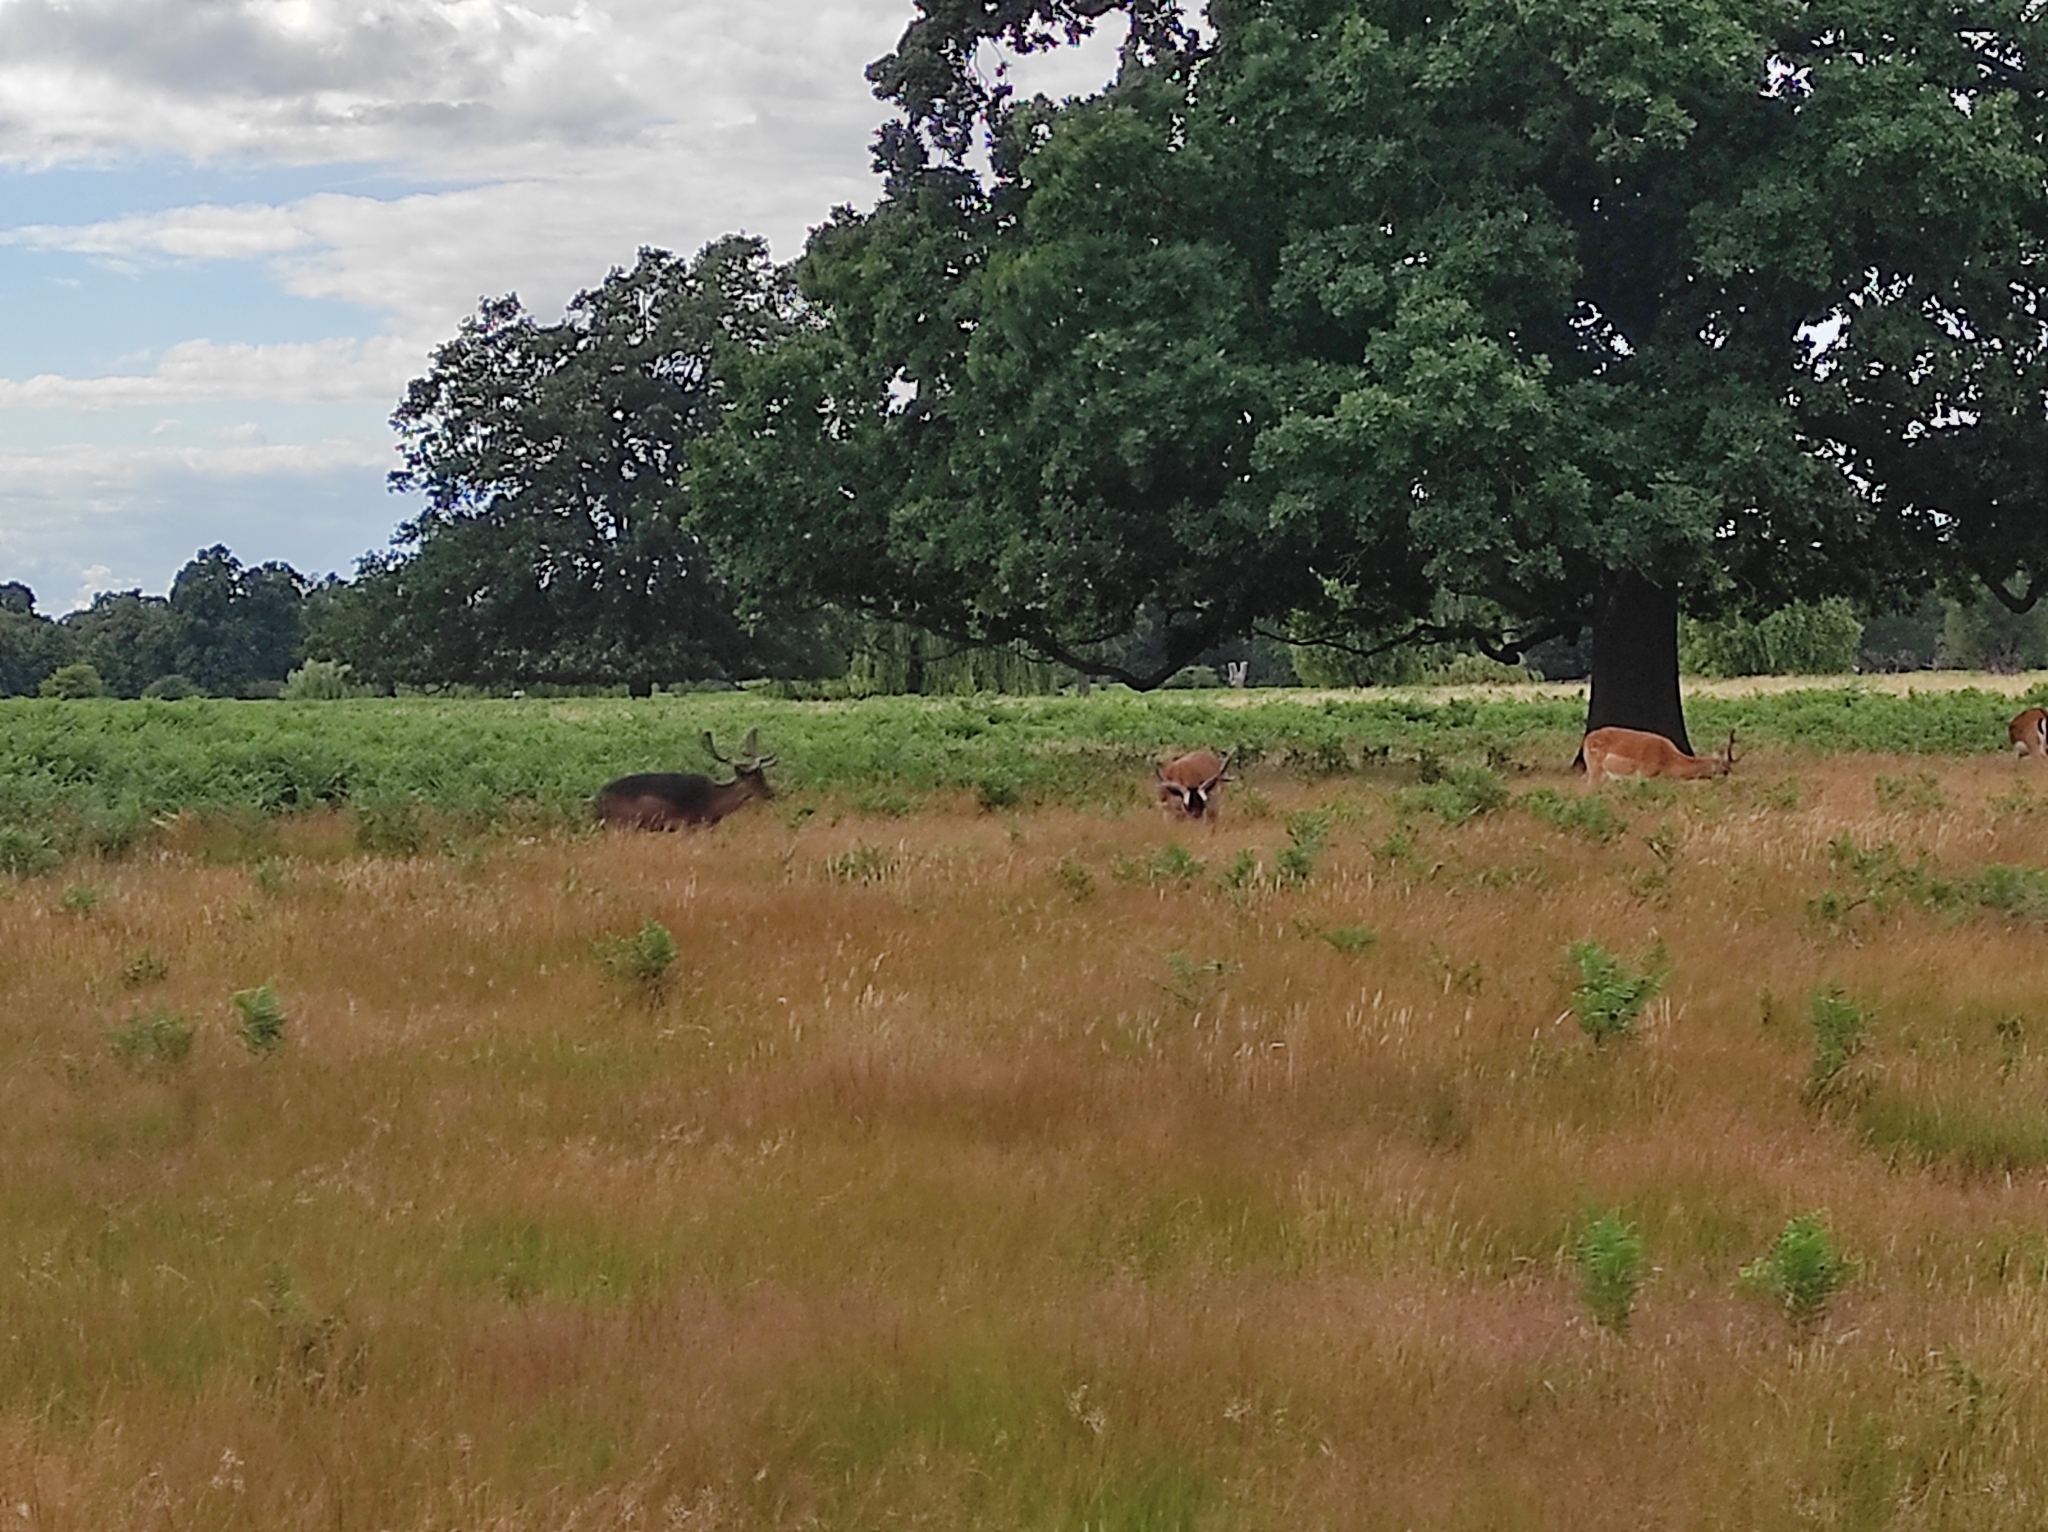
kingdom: Animalia
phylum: Chordata
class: Mammalia
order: Artiodactyla
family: Cervidae
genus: Dama
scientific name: Dama dama
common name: Fallow deer
